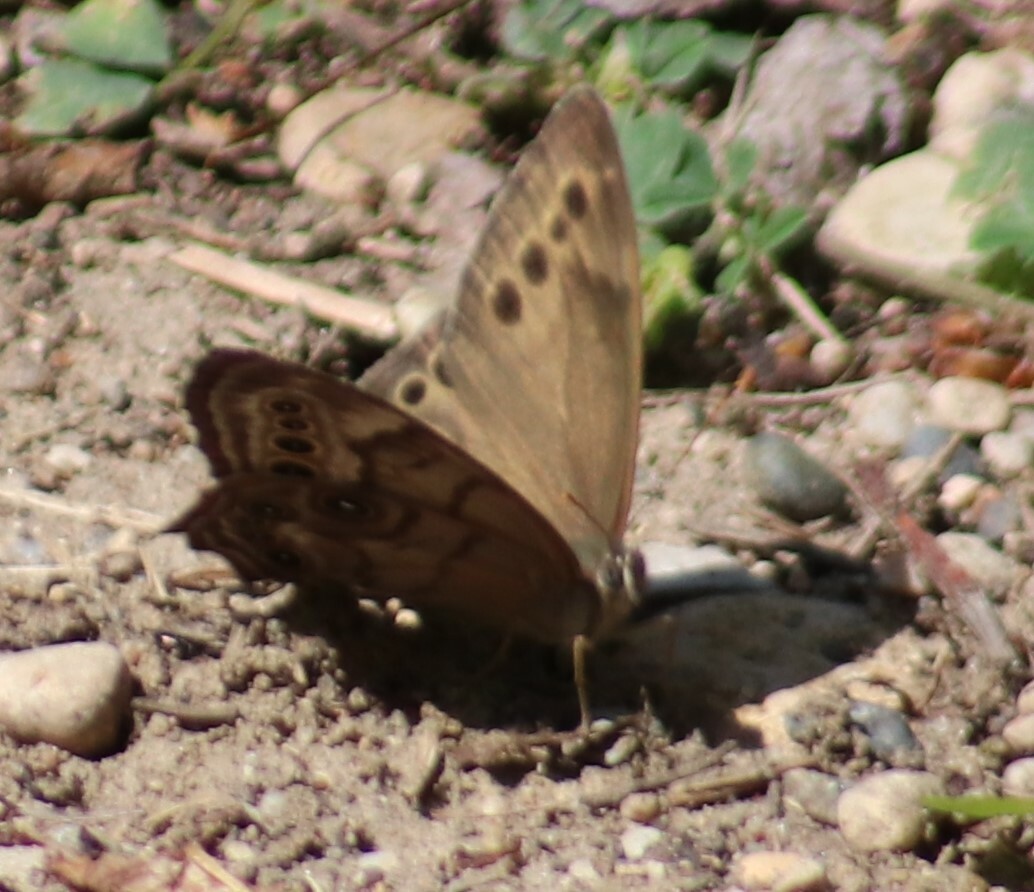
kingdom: Animalia
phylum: Arthropoda
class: Insecta
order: Lepidoptera
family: Nymphalidae
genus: Lethe
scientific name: Lethe anthedon
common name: Northern pearly-eye
